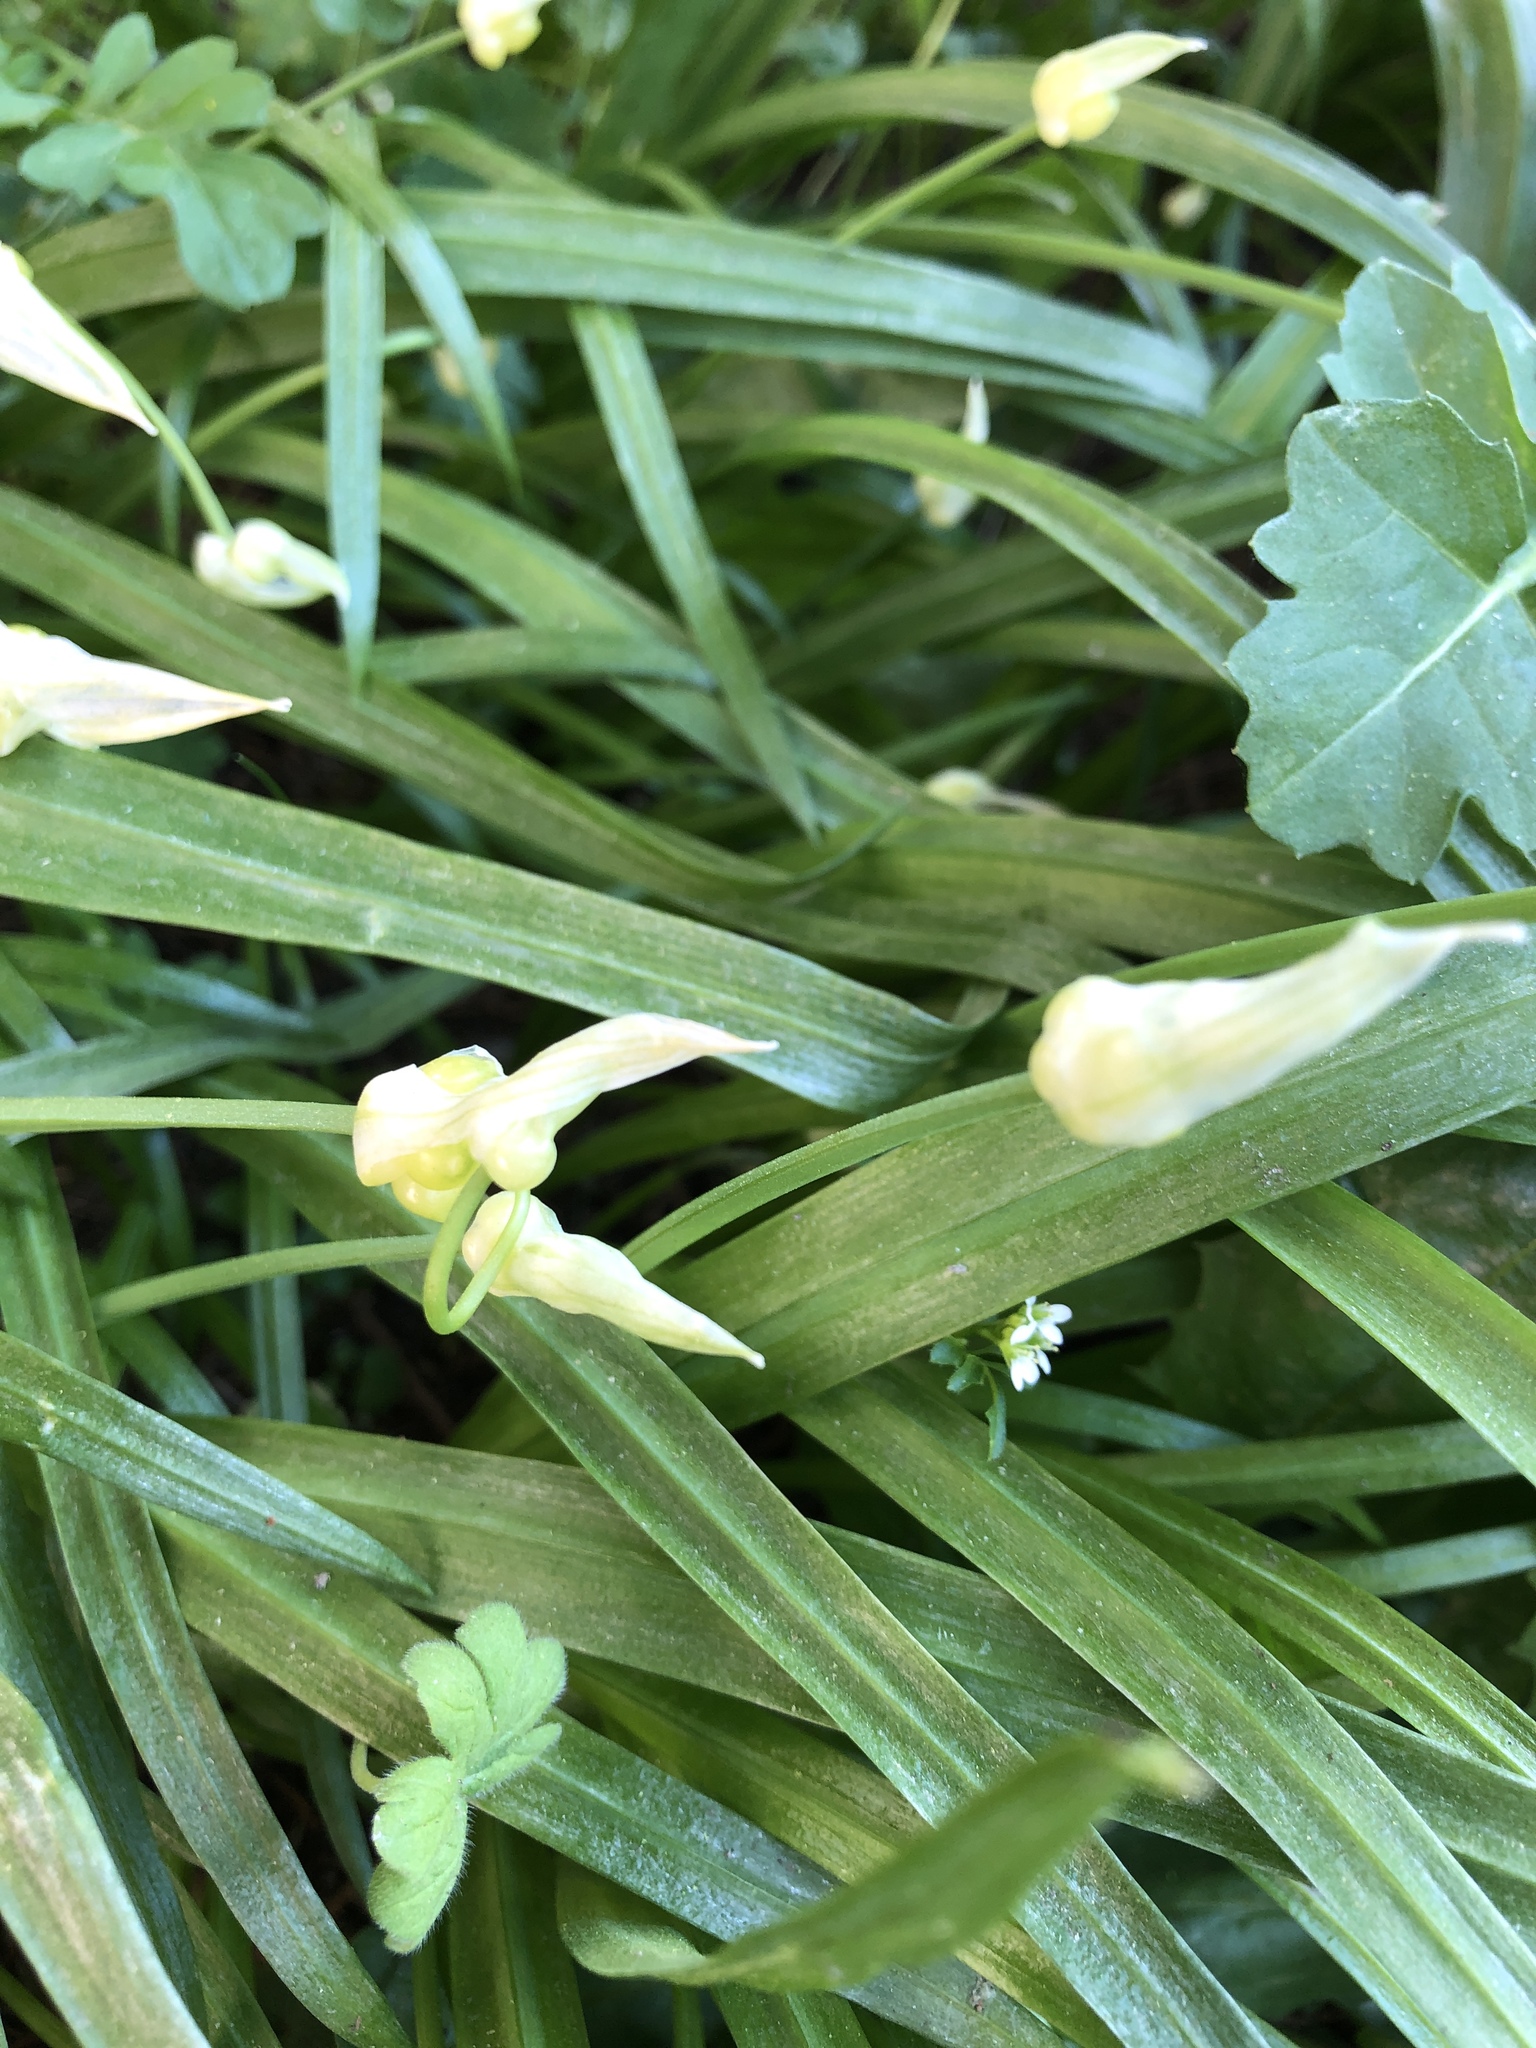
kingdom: Plantae
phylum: Tracheophyta
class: Liliopsida
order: Asparagales
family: Amaryllidaceae
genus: Allium
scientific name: Allium paradoxum
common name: Few-flowered garlic
